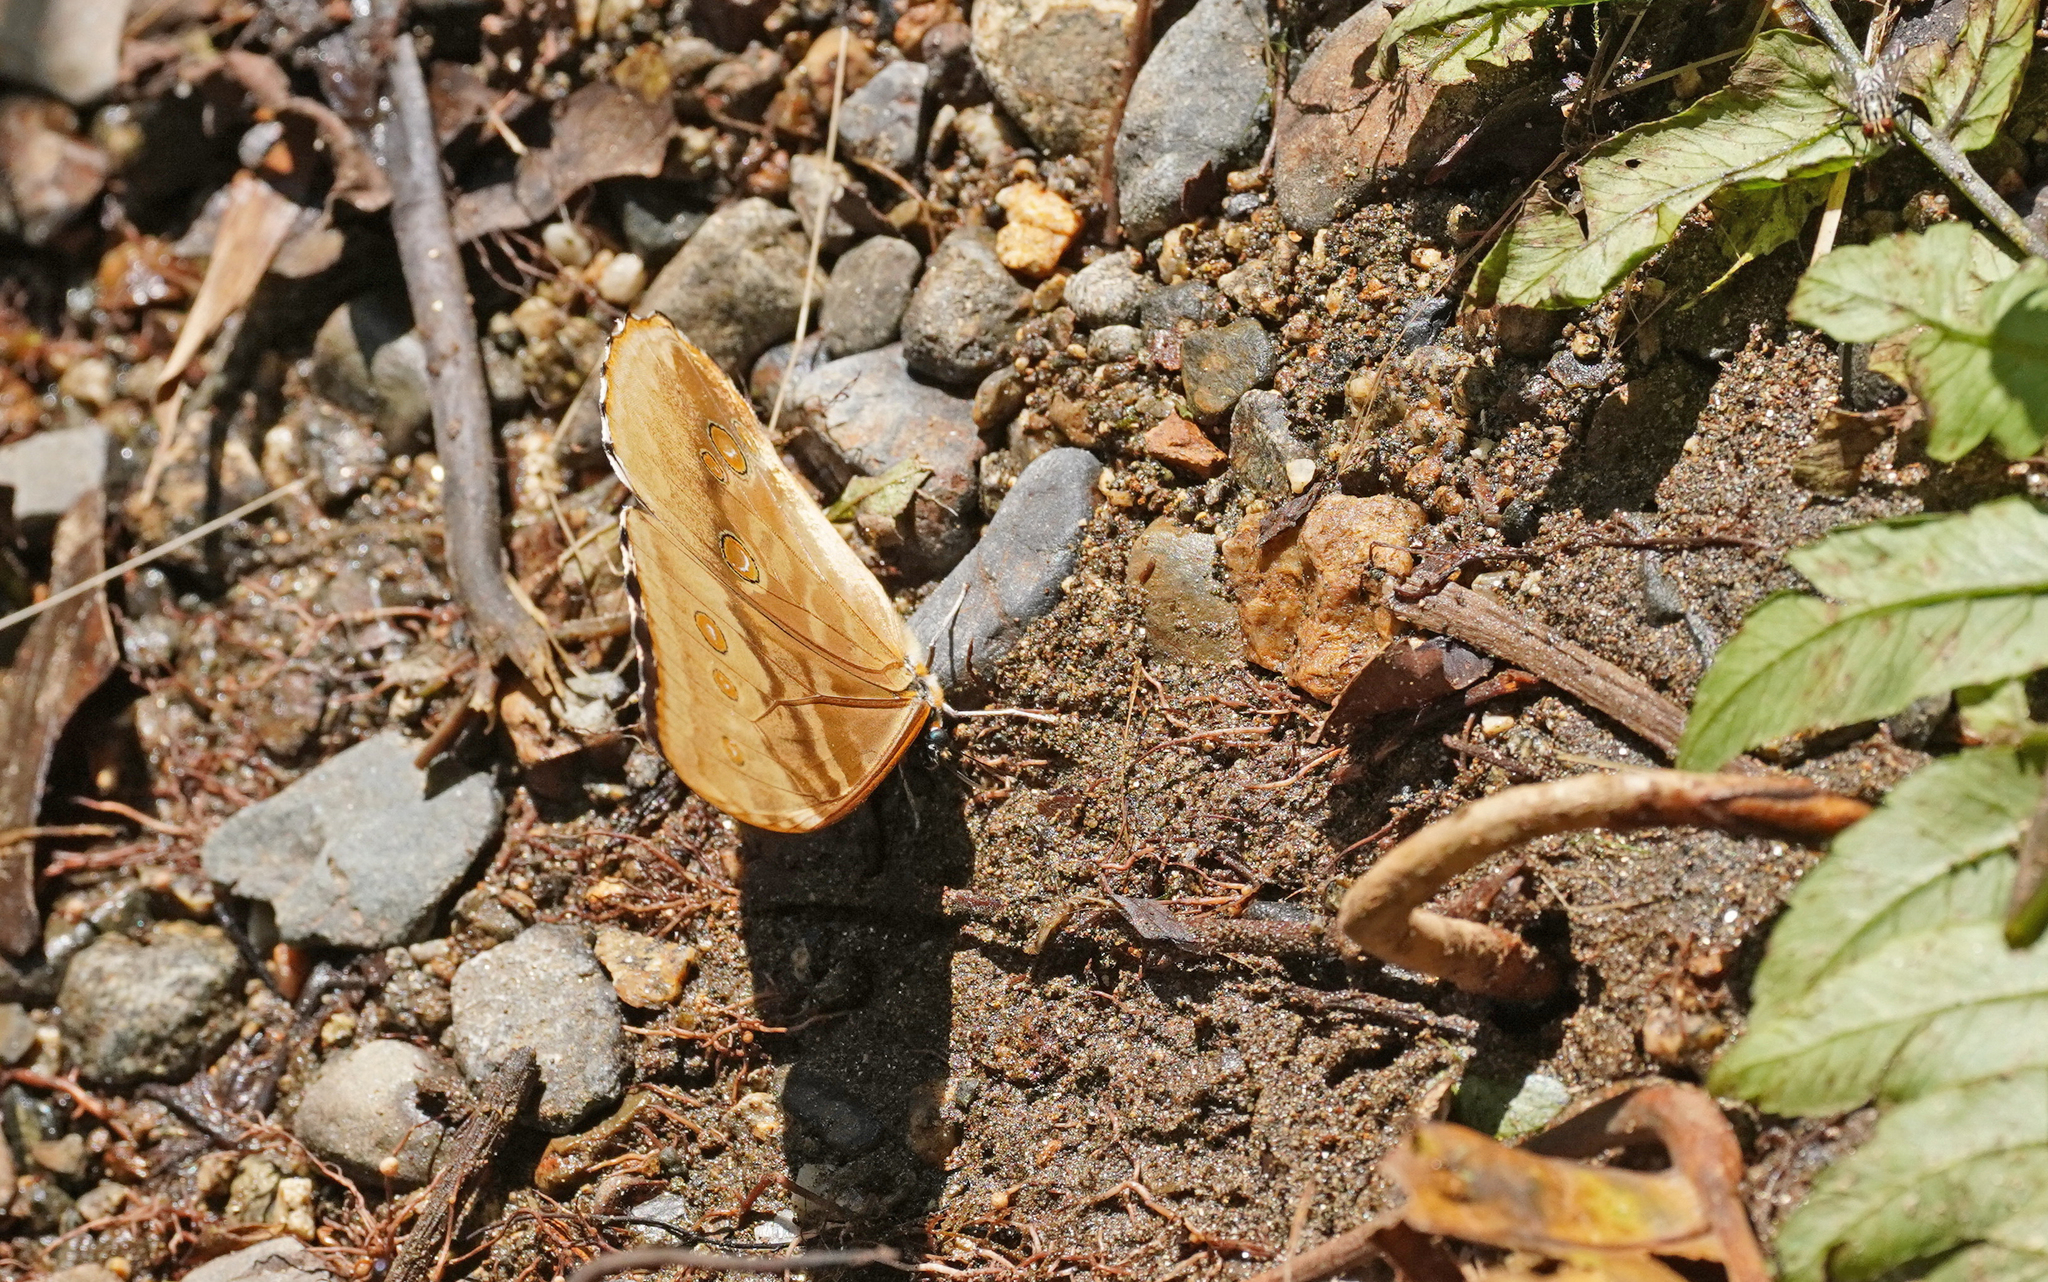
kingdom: Animalia
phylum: Arthropoda
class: Insecta
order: Lepidoptera
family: Nymphalidae
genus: Morpho
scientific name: Morpho aurora
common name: Aurora morpho
